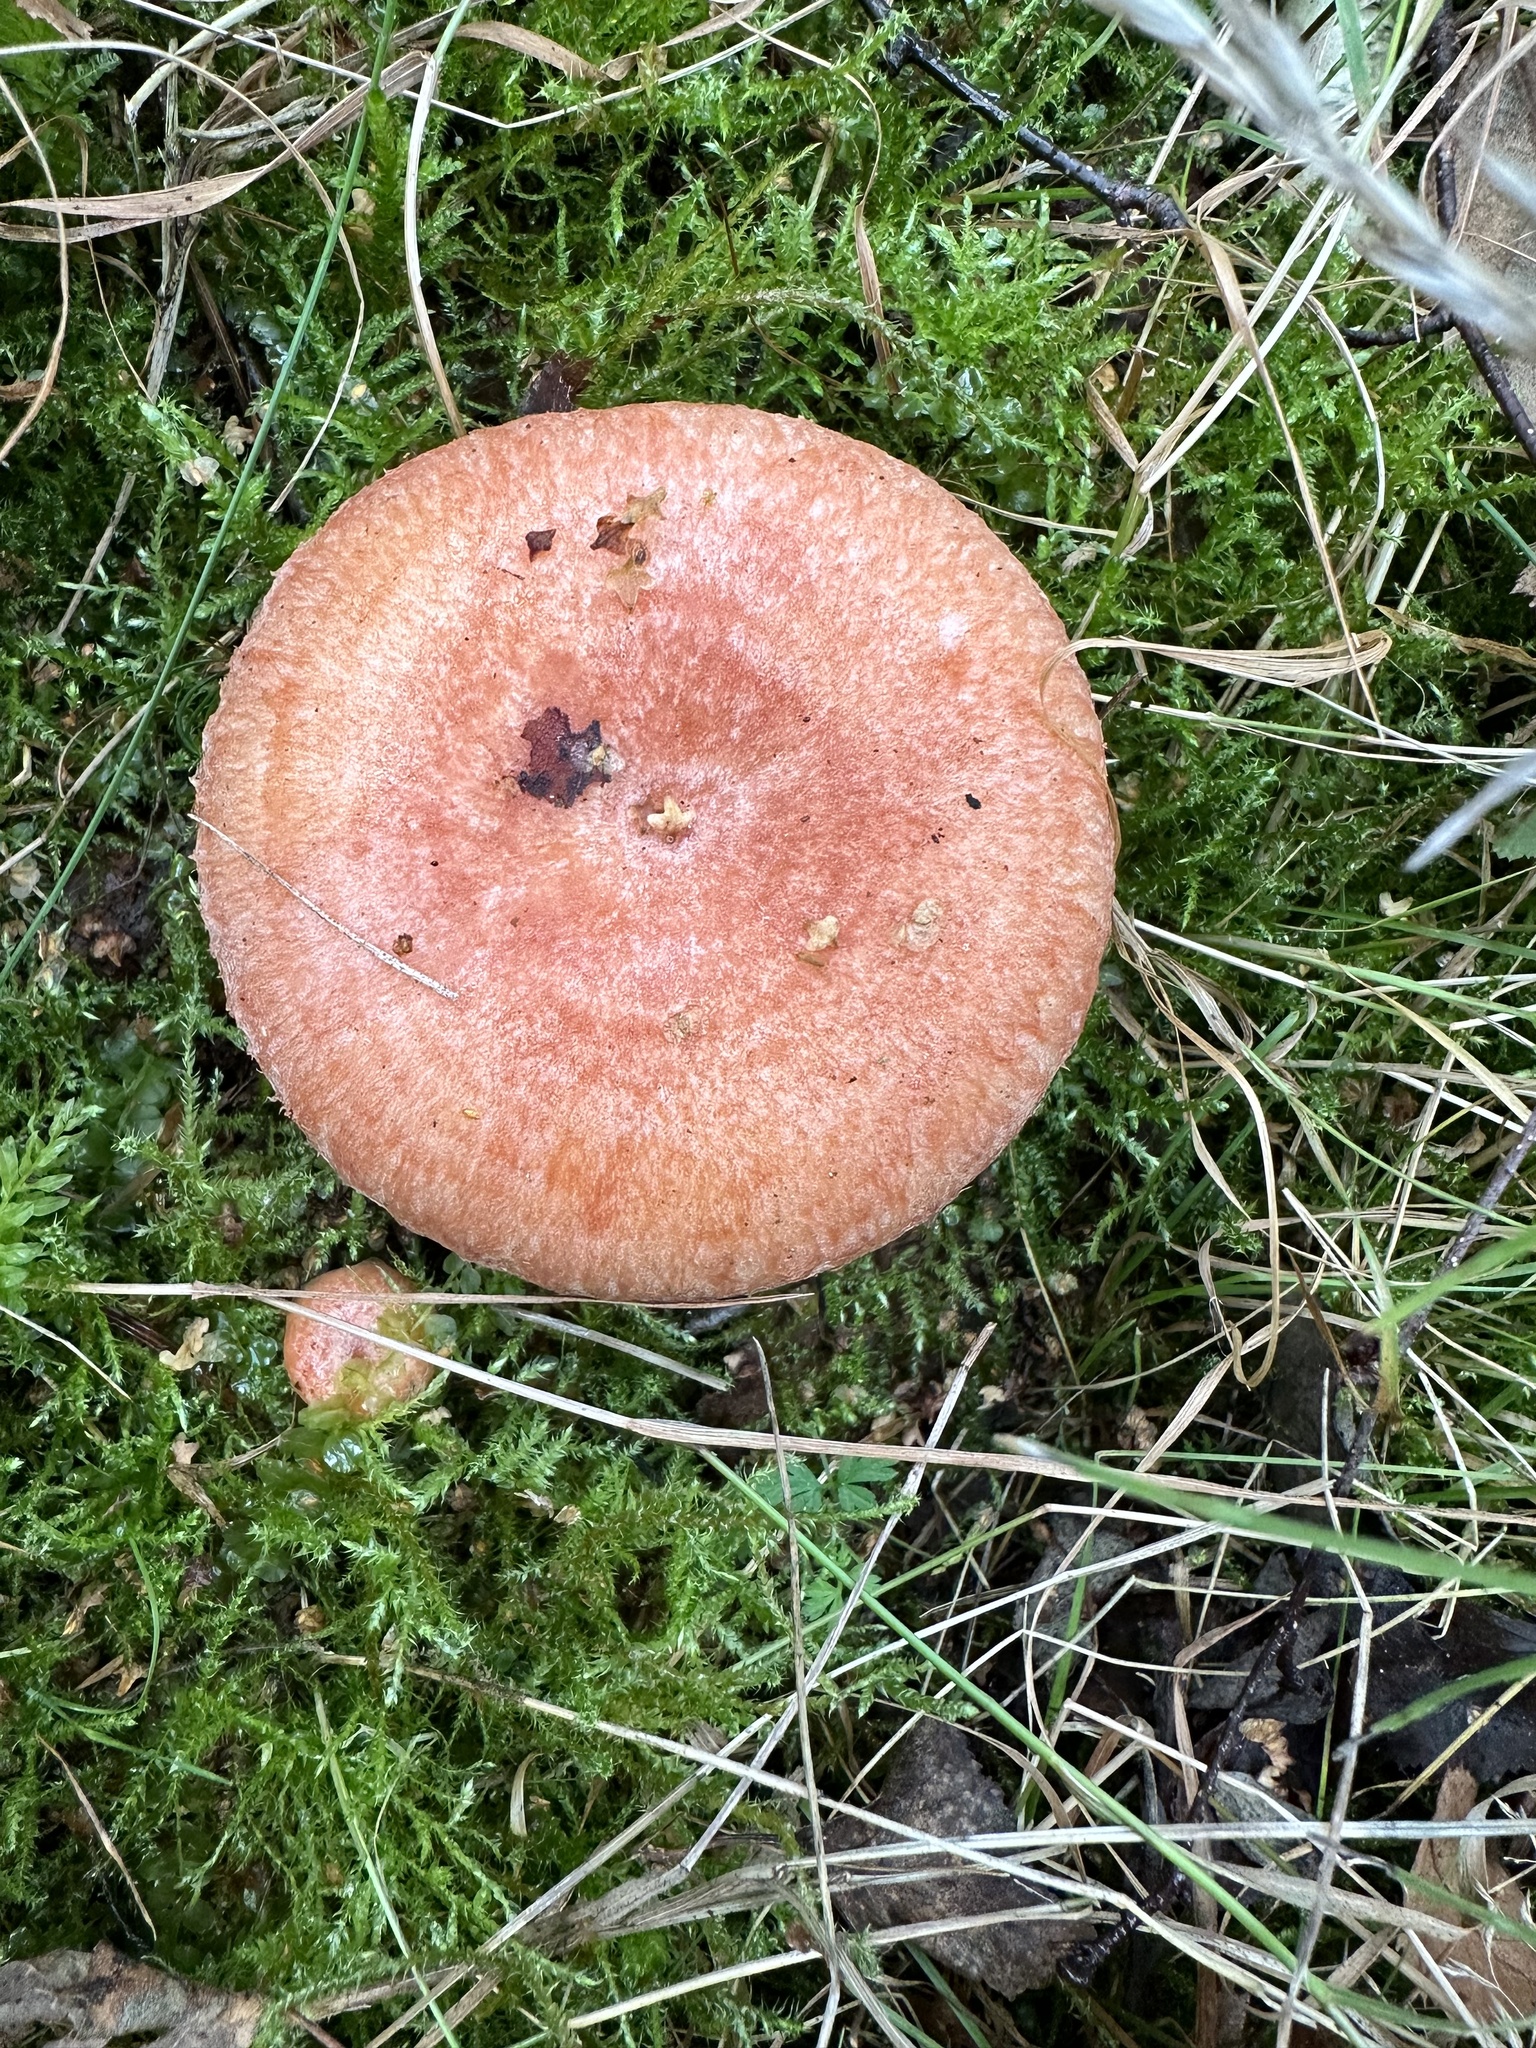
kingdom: Fungi
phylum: Basidiomycota
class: Agaricomycetes
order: Russulales
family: Russulaceae
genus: Lactarius
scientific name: Lactarius torminosus
